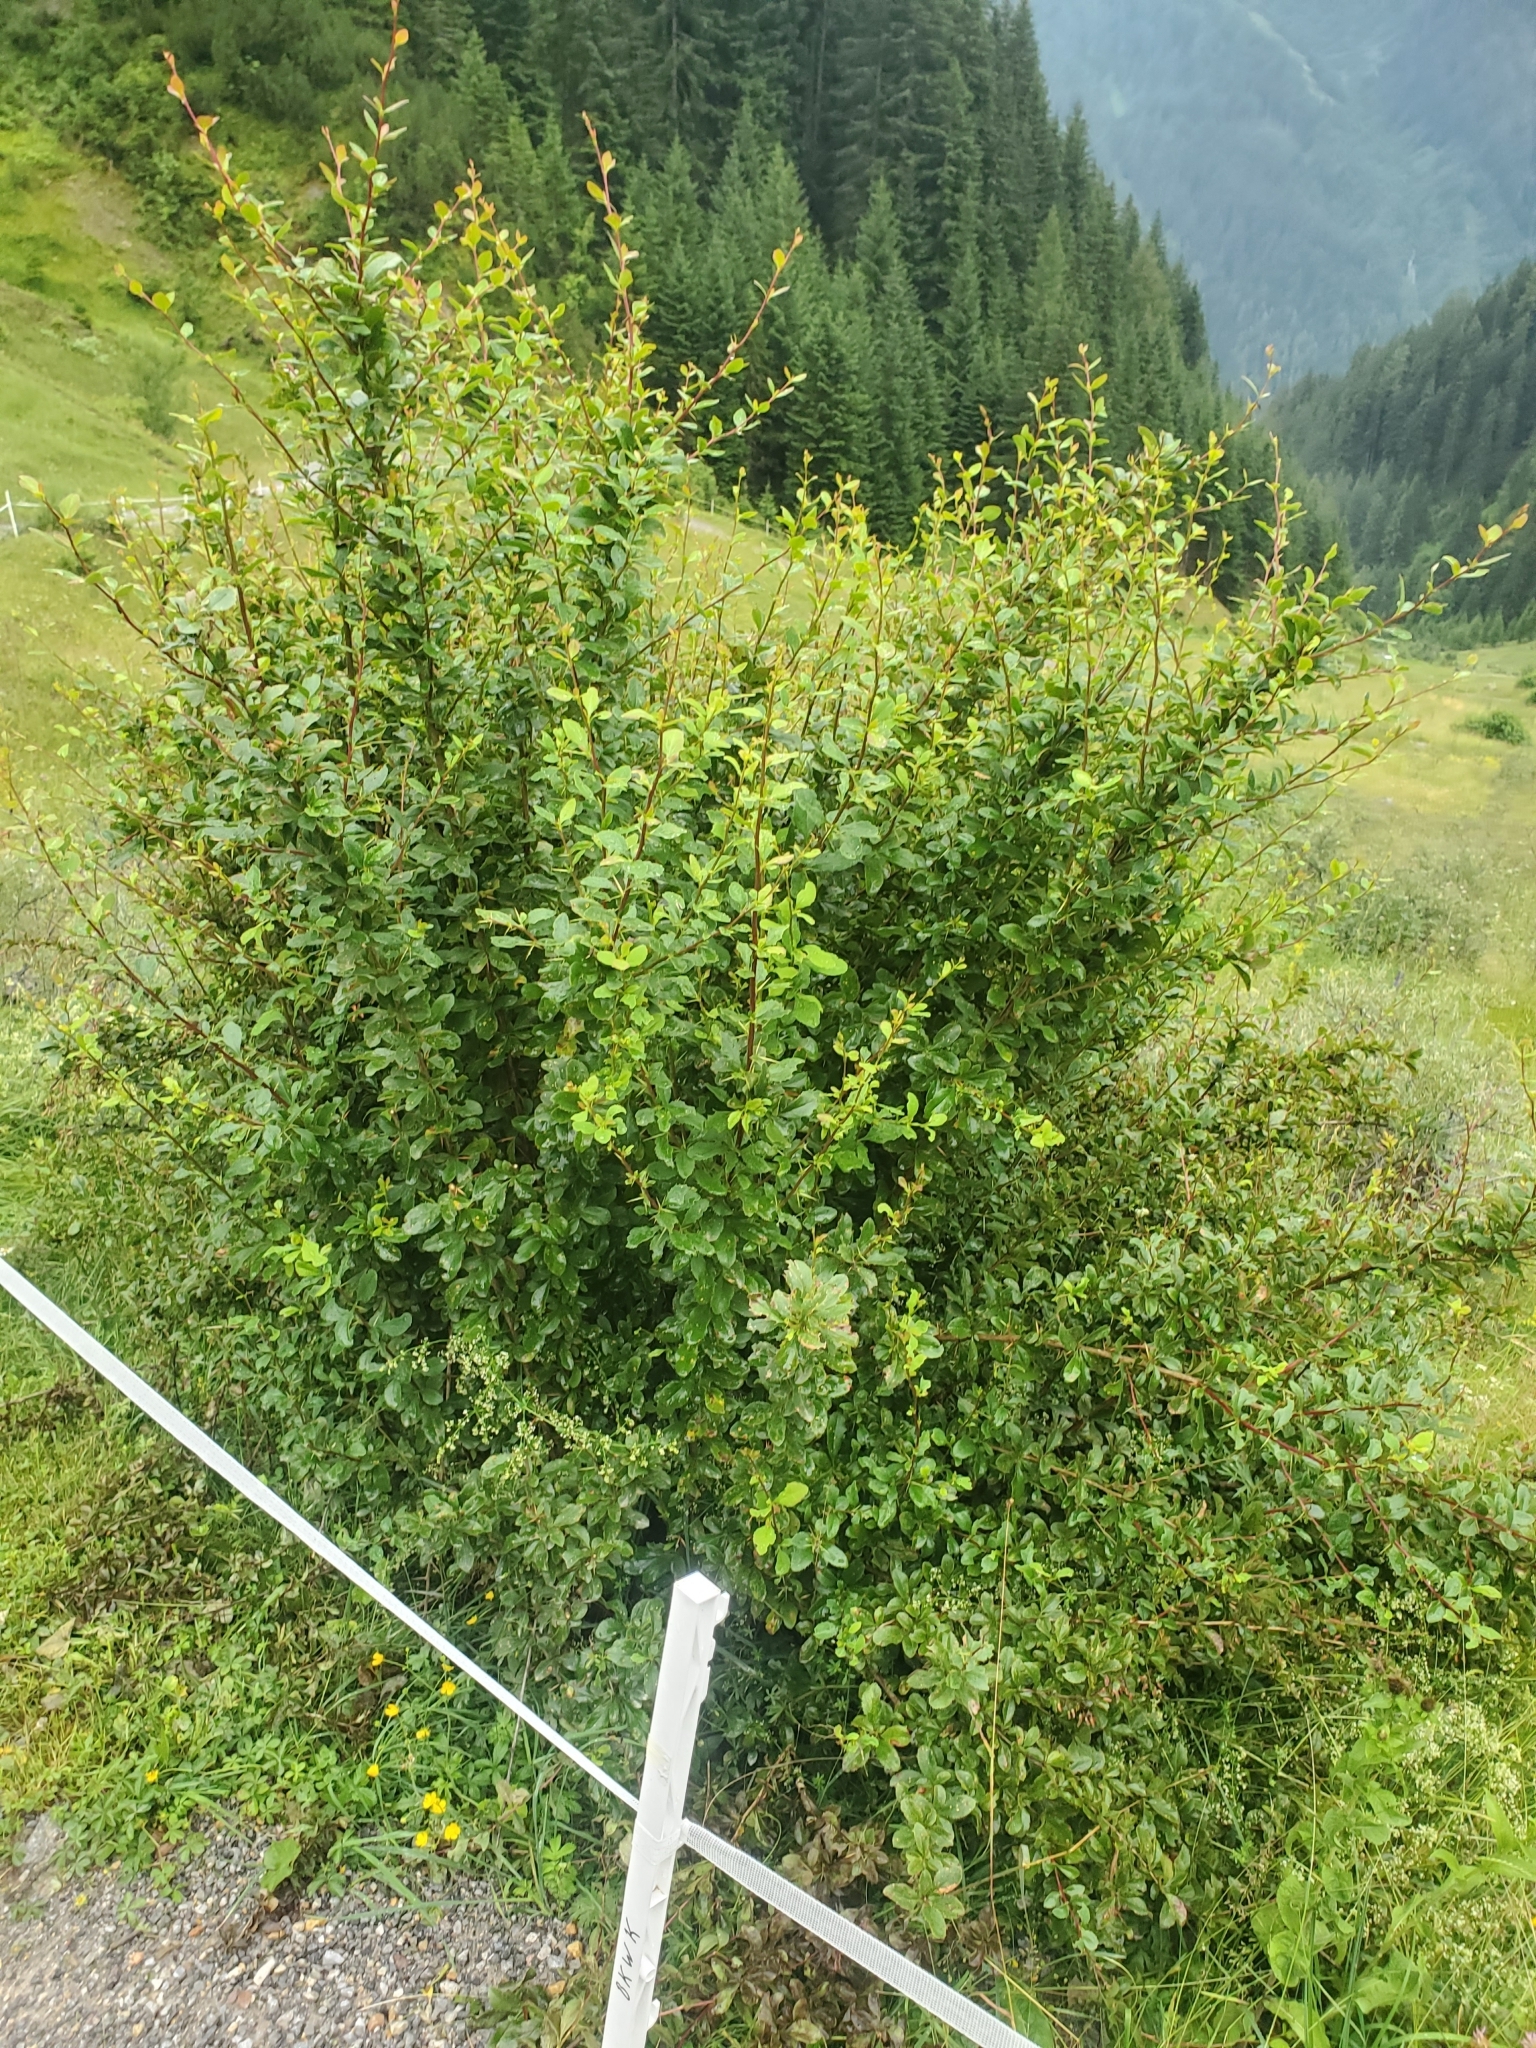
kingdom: Plantae
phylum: Tracheophyta
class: Magnoliopsida
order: Ranunculales
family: Berberidaceae
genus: Berberis
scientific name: Berberis vulgaris
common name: Barberry
